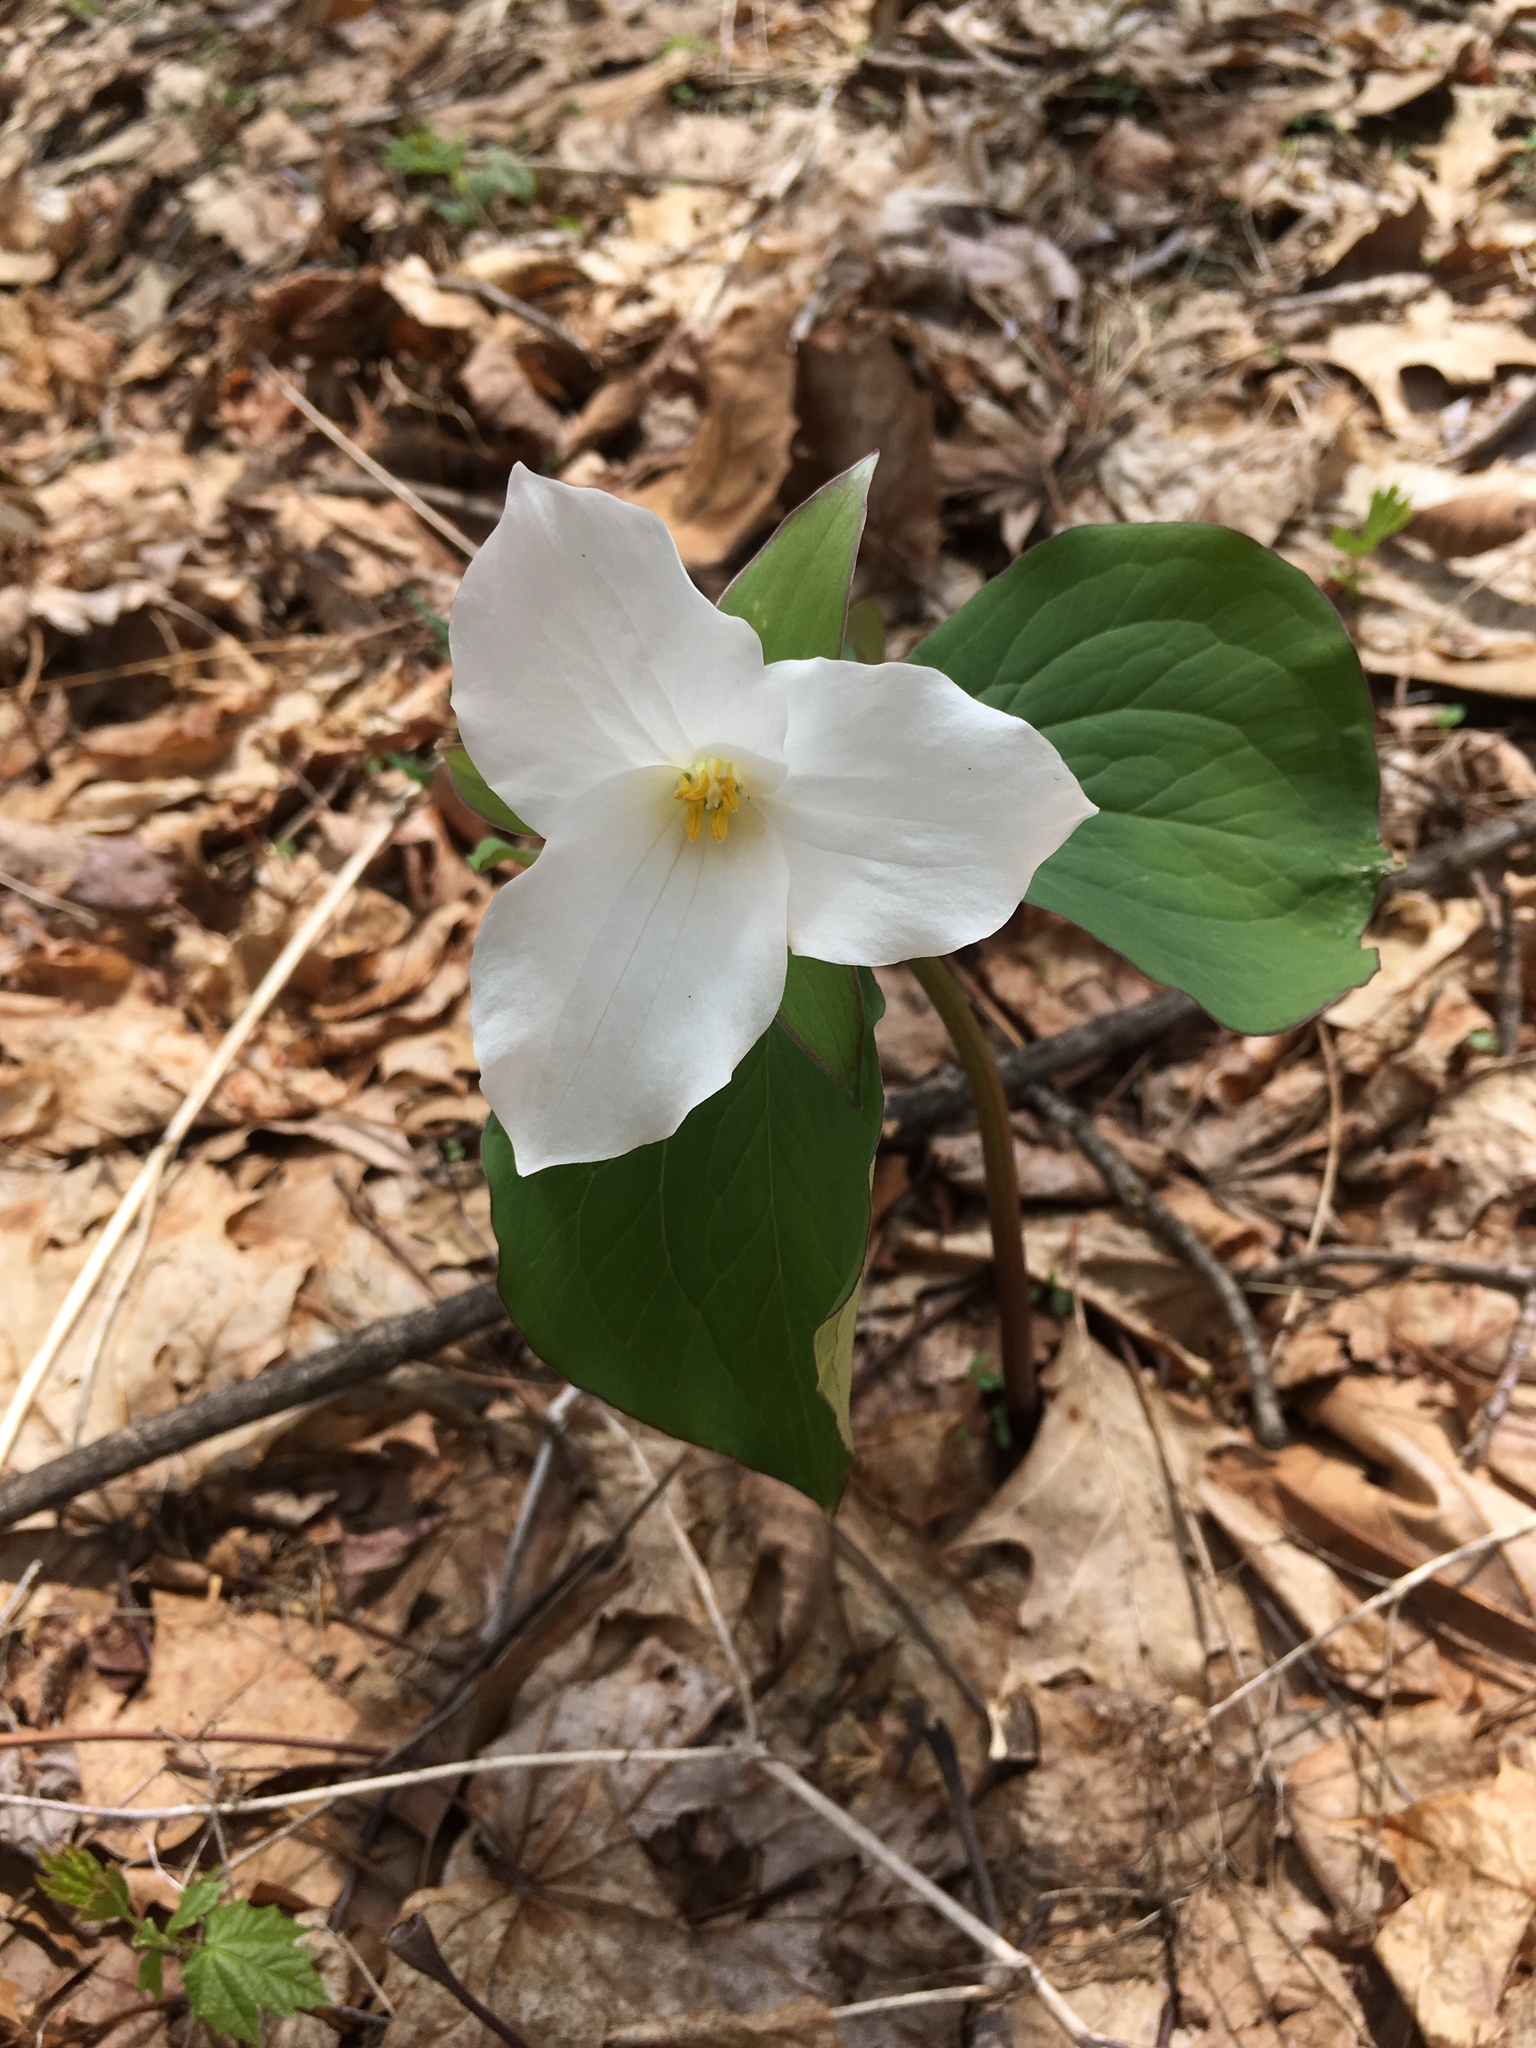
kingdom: Plantae
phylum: Tracheophyta
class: Liliopsida
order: Liliales
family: Melanthiaceae
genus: Trillium
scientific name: Trillium grandiflorum
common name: Great white trillium
